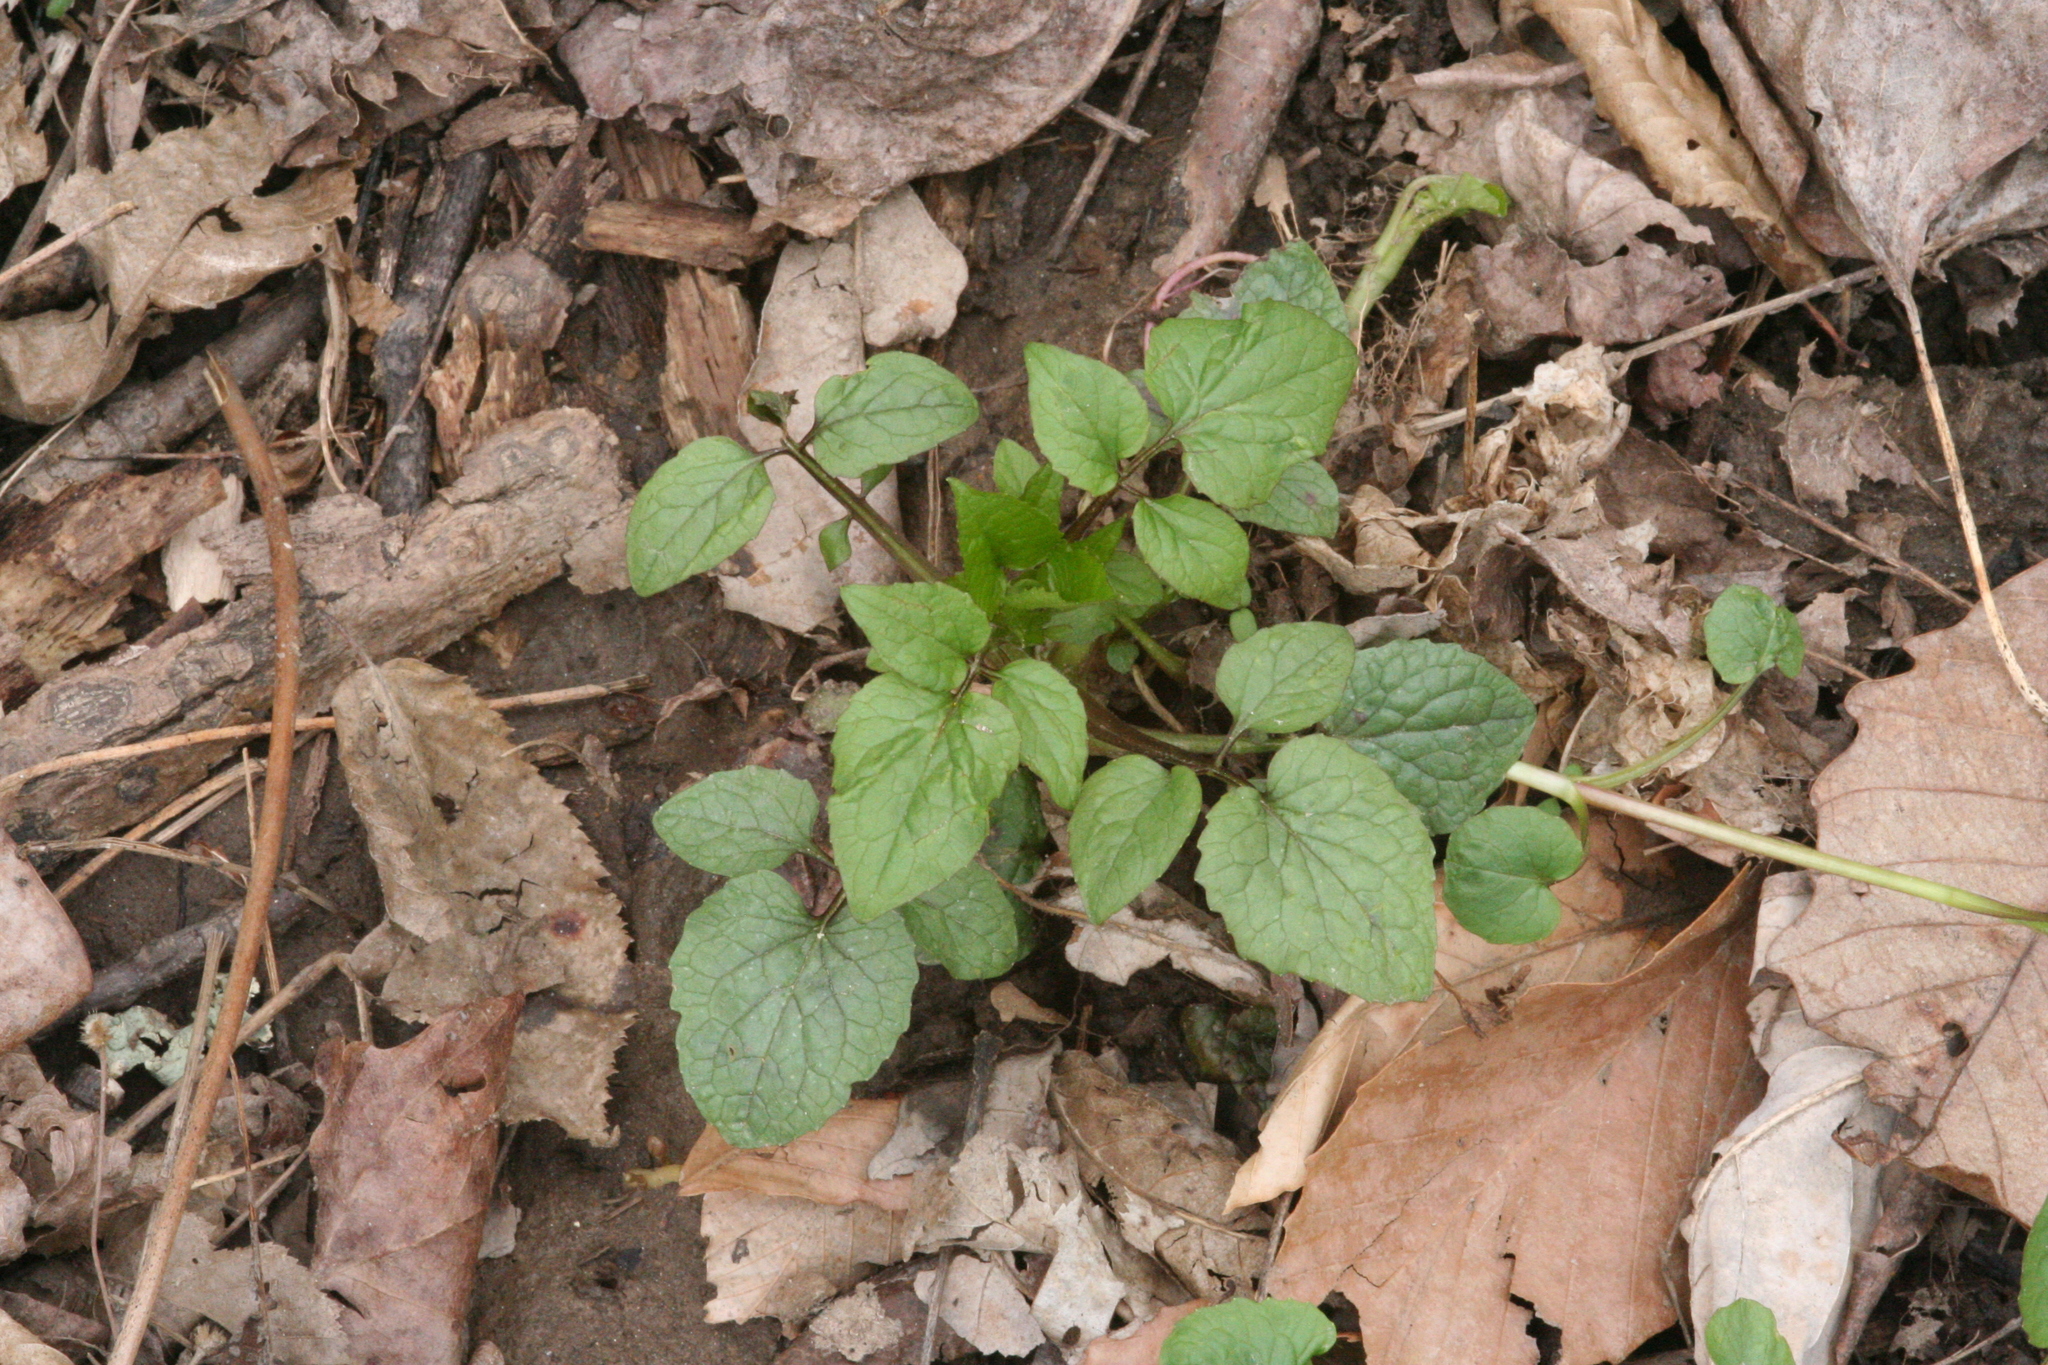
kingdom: Plantae
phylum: Tracheophyta
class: Magnoliopsida
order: Dipsacales
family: Caprifoliaceae
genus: Valeriana
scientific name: Valeriana pauciflora
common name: Long-tube valeriana
